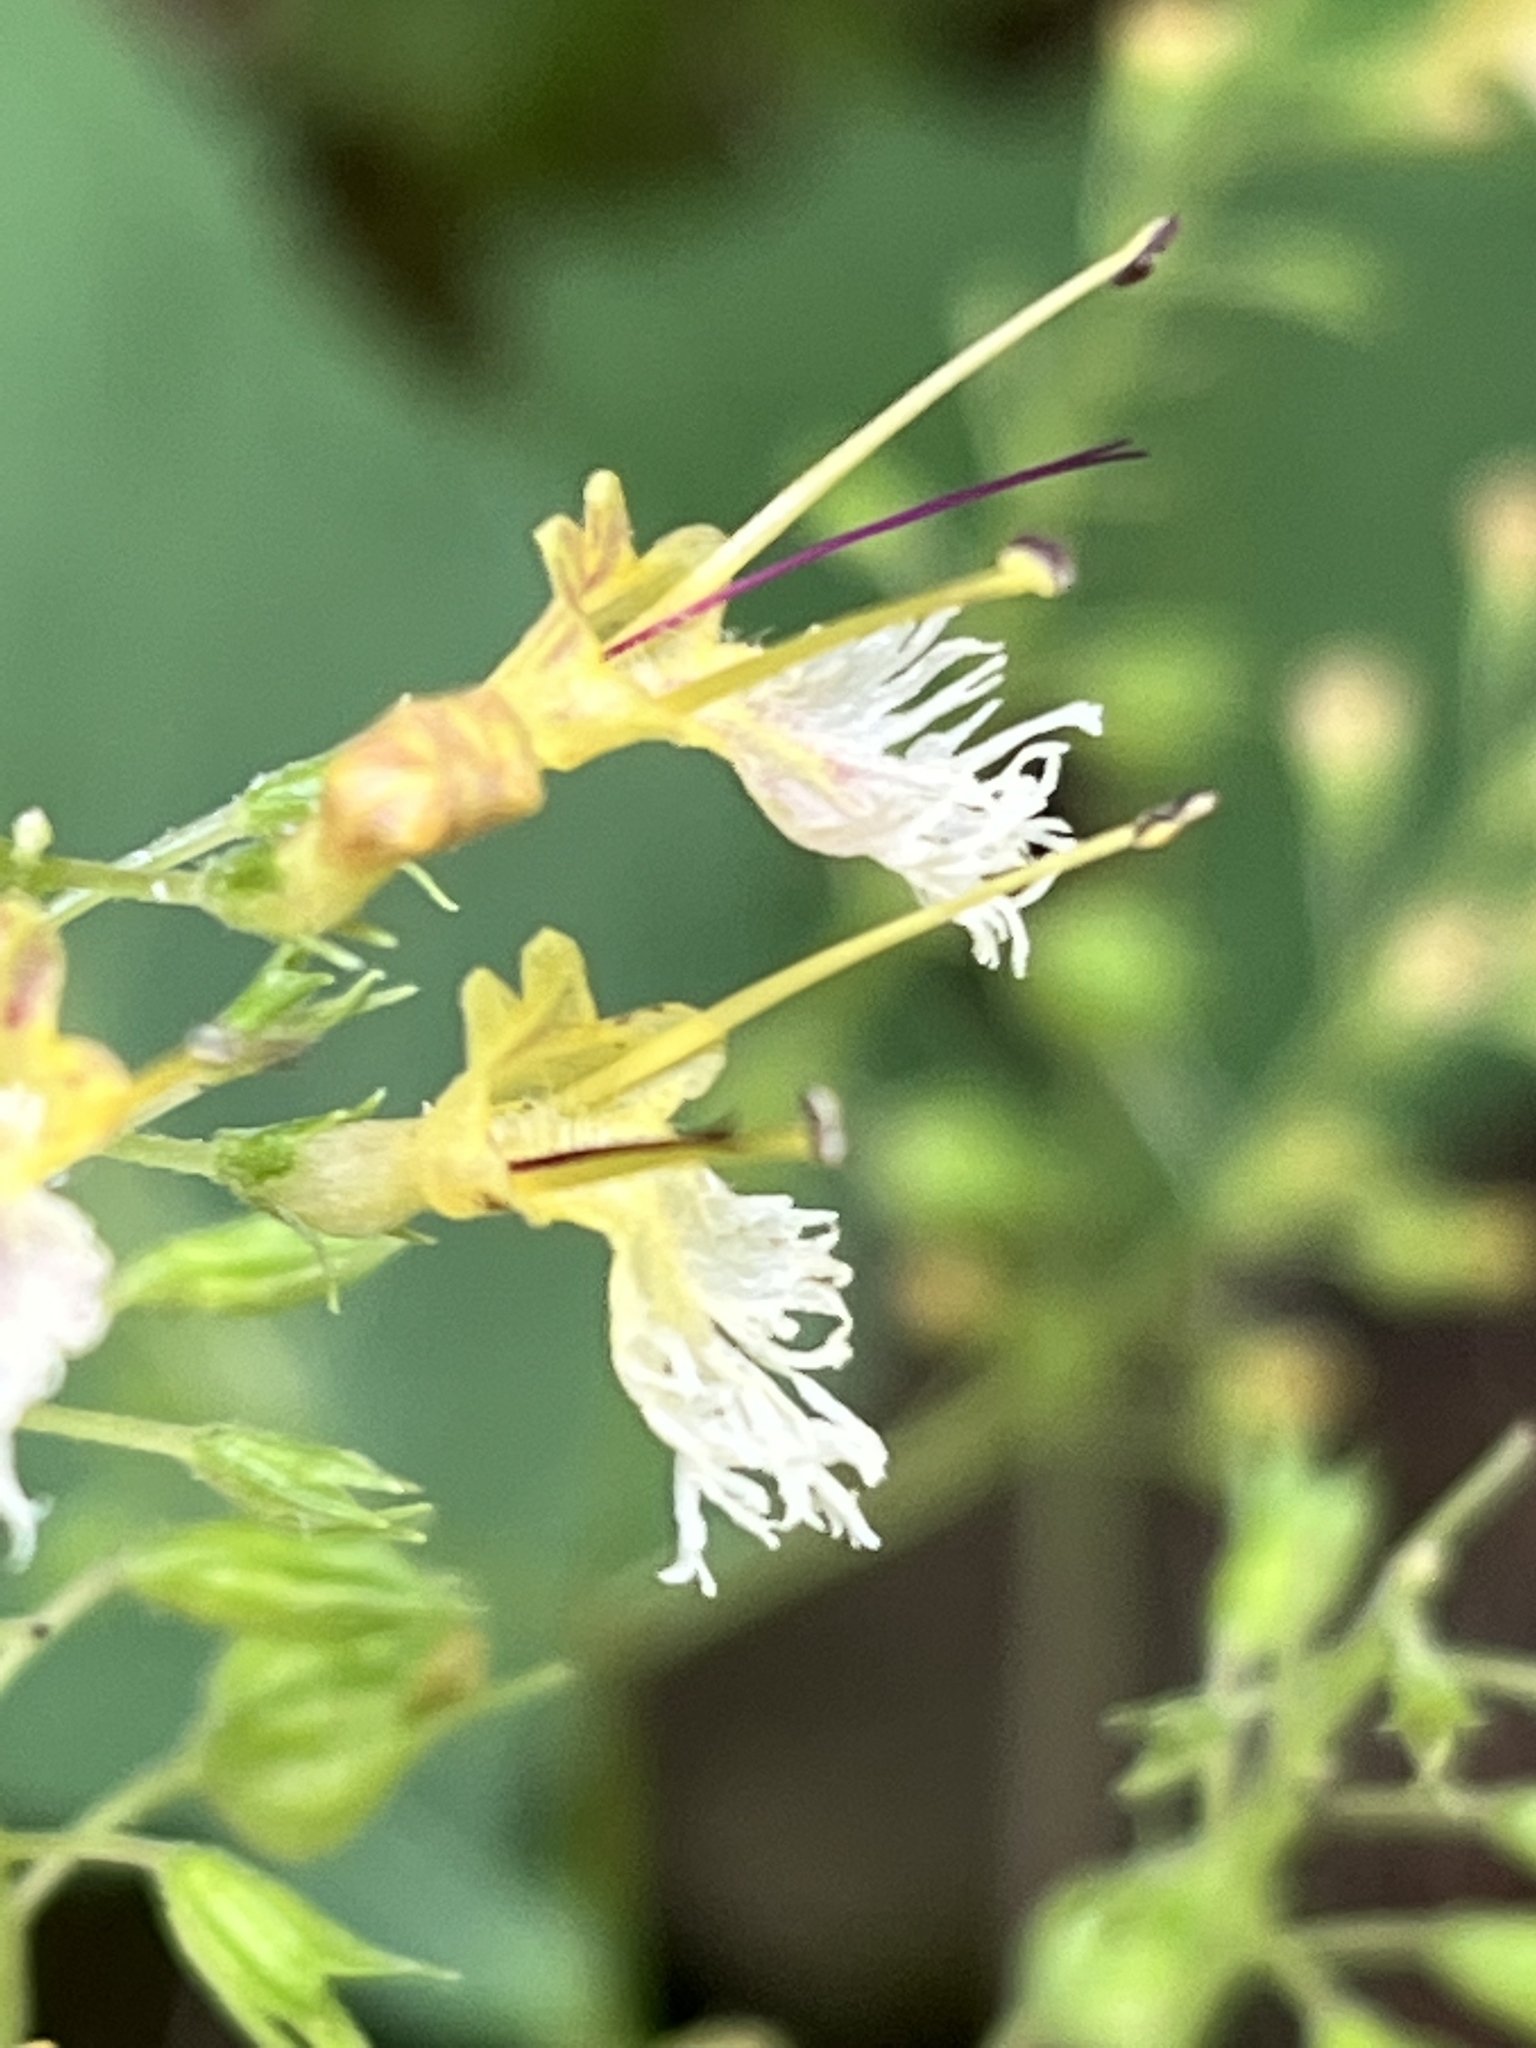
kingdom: Plantae
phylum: Tracheophyta
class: Magnoliopsida
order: Lamiales
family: Lamiaceae
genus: Collinsonia
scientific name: Collinsonia canadensis
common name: Northern horsebalm
